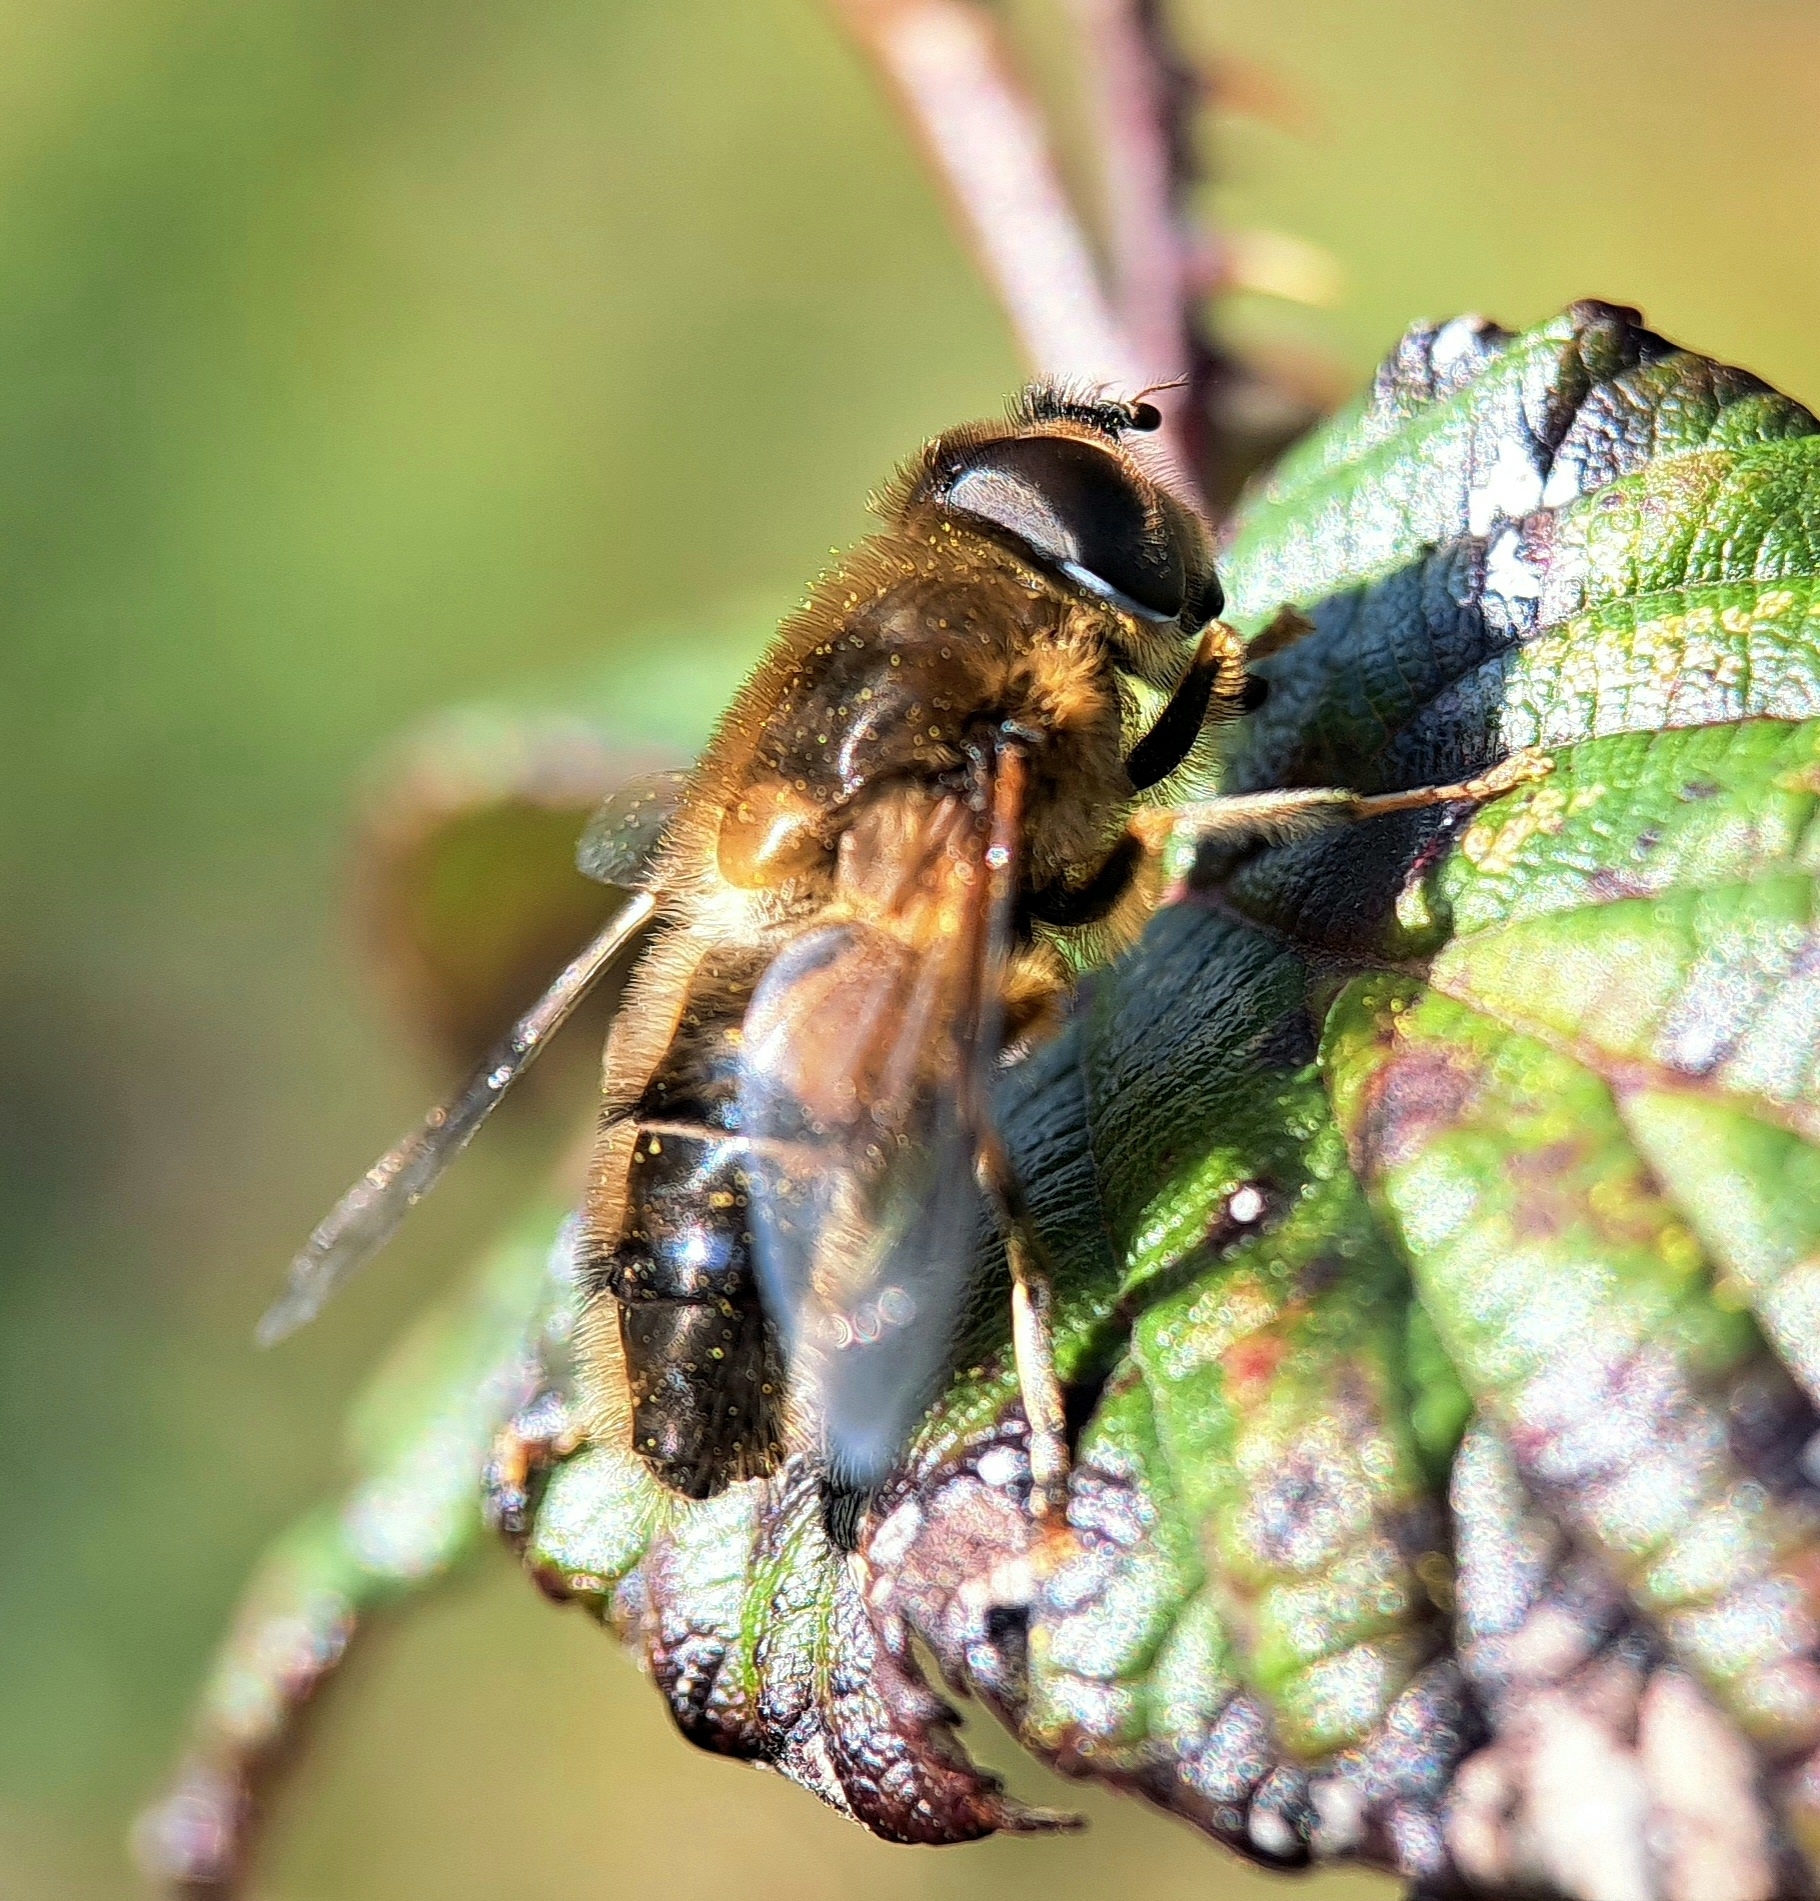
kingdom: Animalia
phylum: Arthropoda
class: Insecta
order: Diptera
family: Syrphidae
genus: Eristalis
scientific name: Eristalis pertinax
